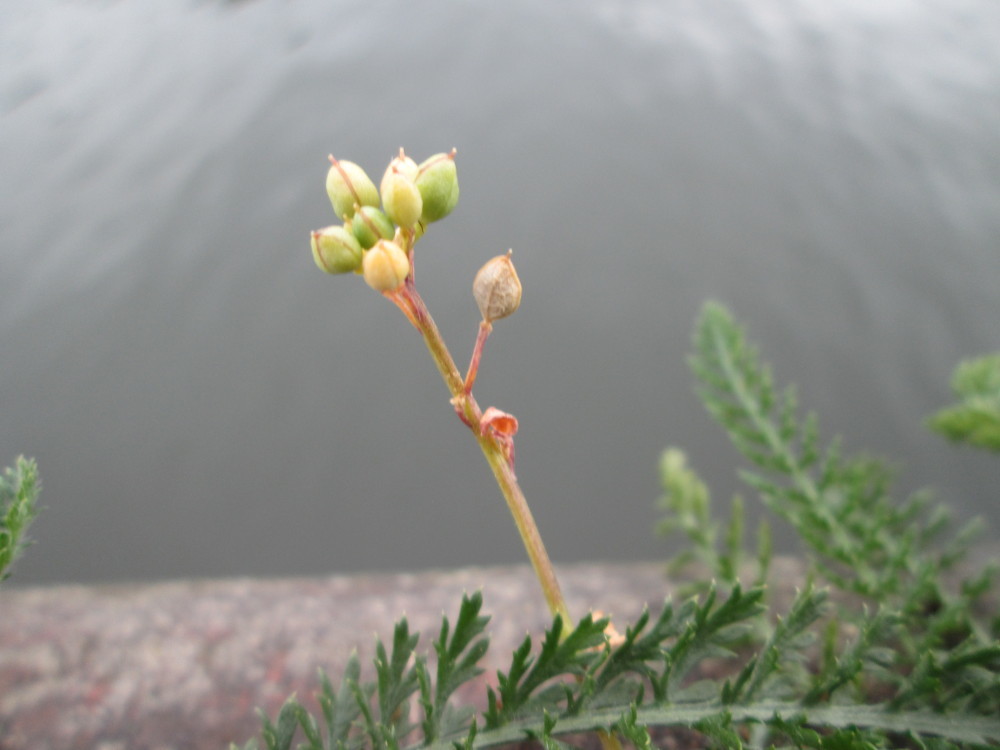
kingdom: Plantae
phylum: Tracheophyta
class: Magnoliopsida
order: Brassicales
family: Brassicaceae
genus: Cochlearia
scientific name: Cochlearia danica
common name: Early scurvygrass
